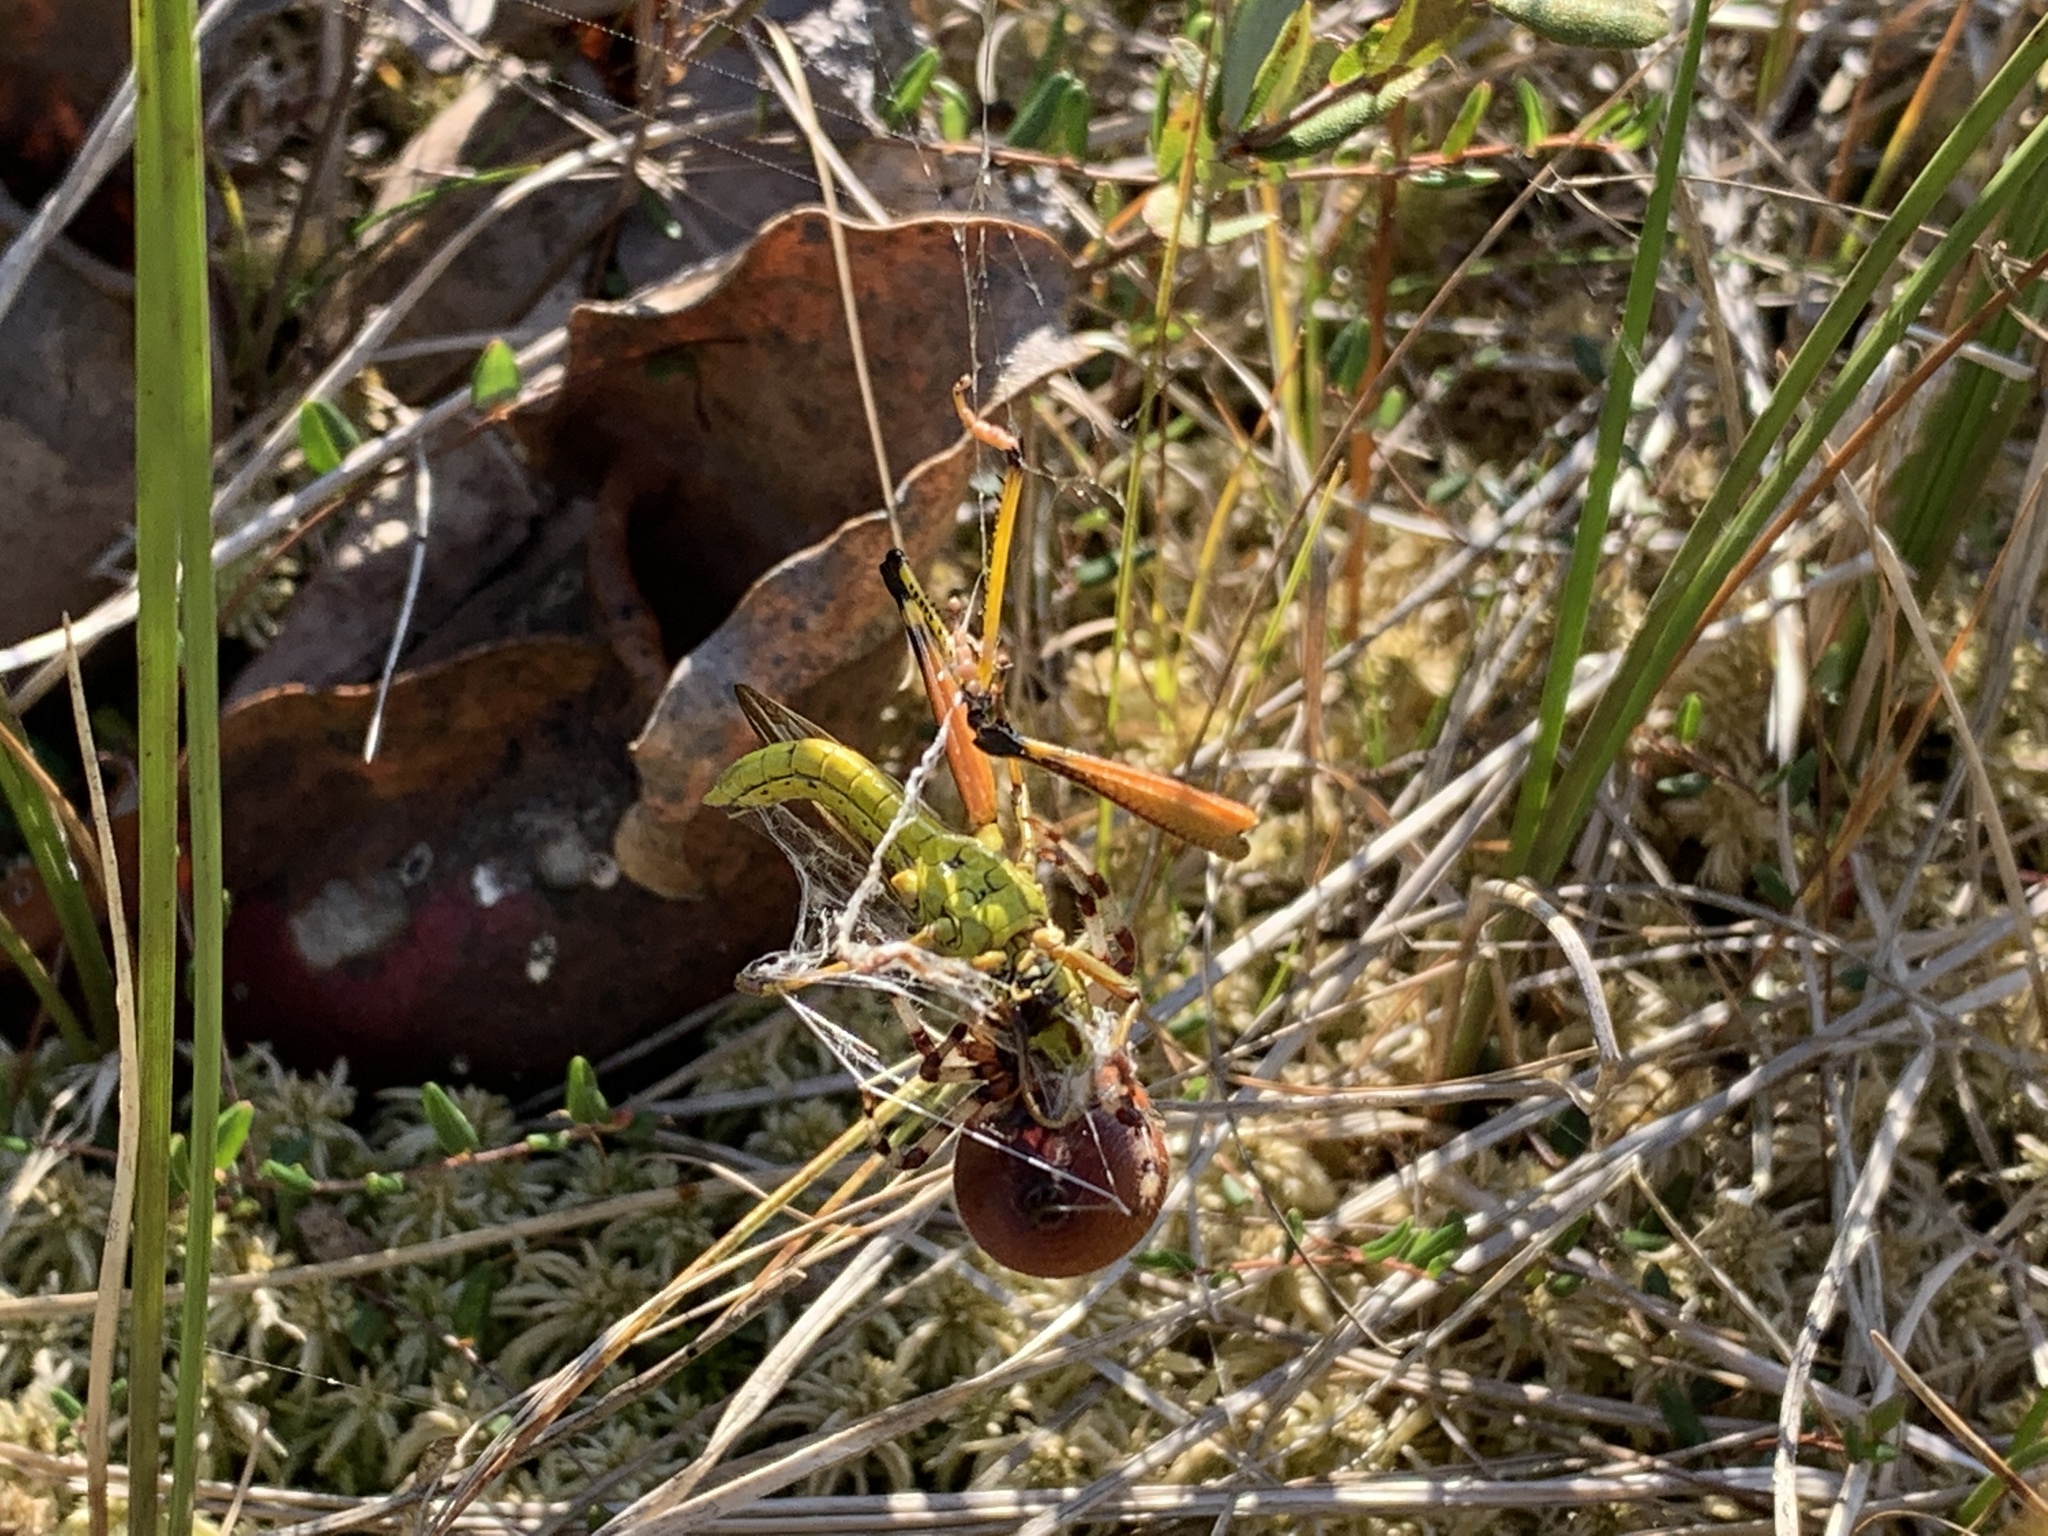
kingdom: Animalia
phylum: Arthropoda
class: Arachnida
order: Araneae
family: Araneidae
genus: Araneus
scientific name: Araneus trifolium
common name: Shamrock orbweaver
